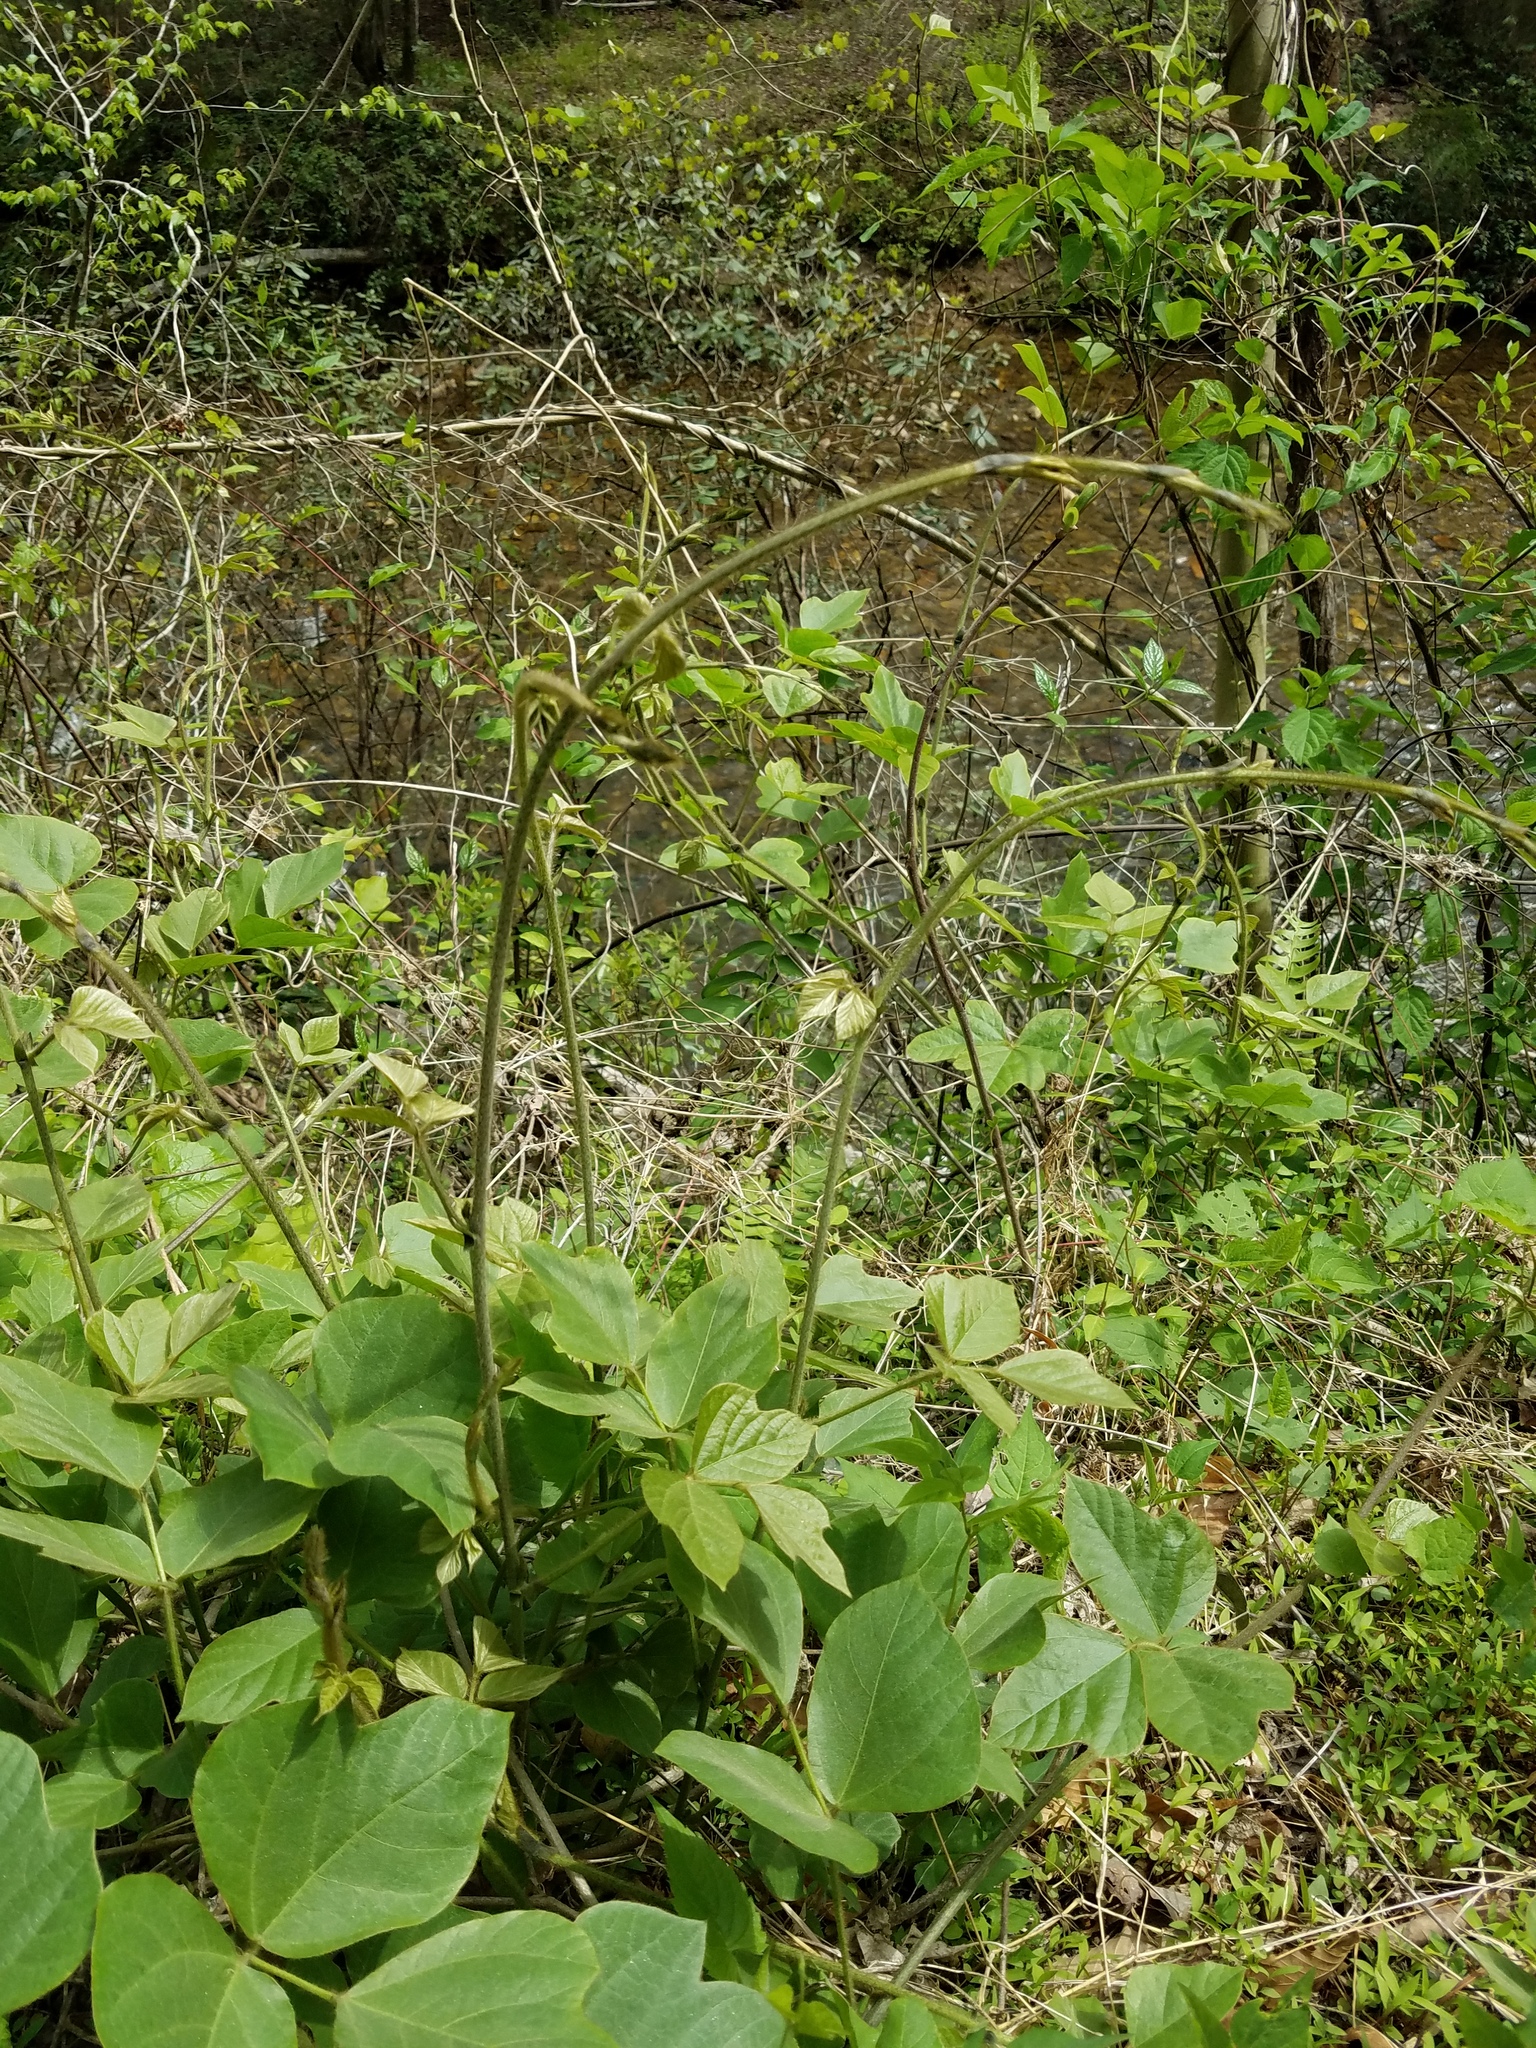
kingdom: Plantae
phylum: Tracheophyta
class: Magnoliopsida
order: Fabales
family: Fabaceae
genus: Pueraria
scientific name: Pueraria montana
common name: Kudzu
